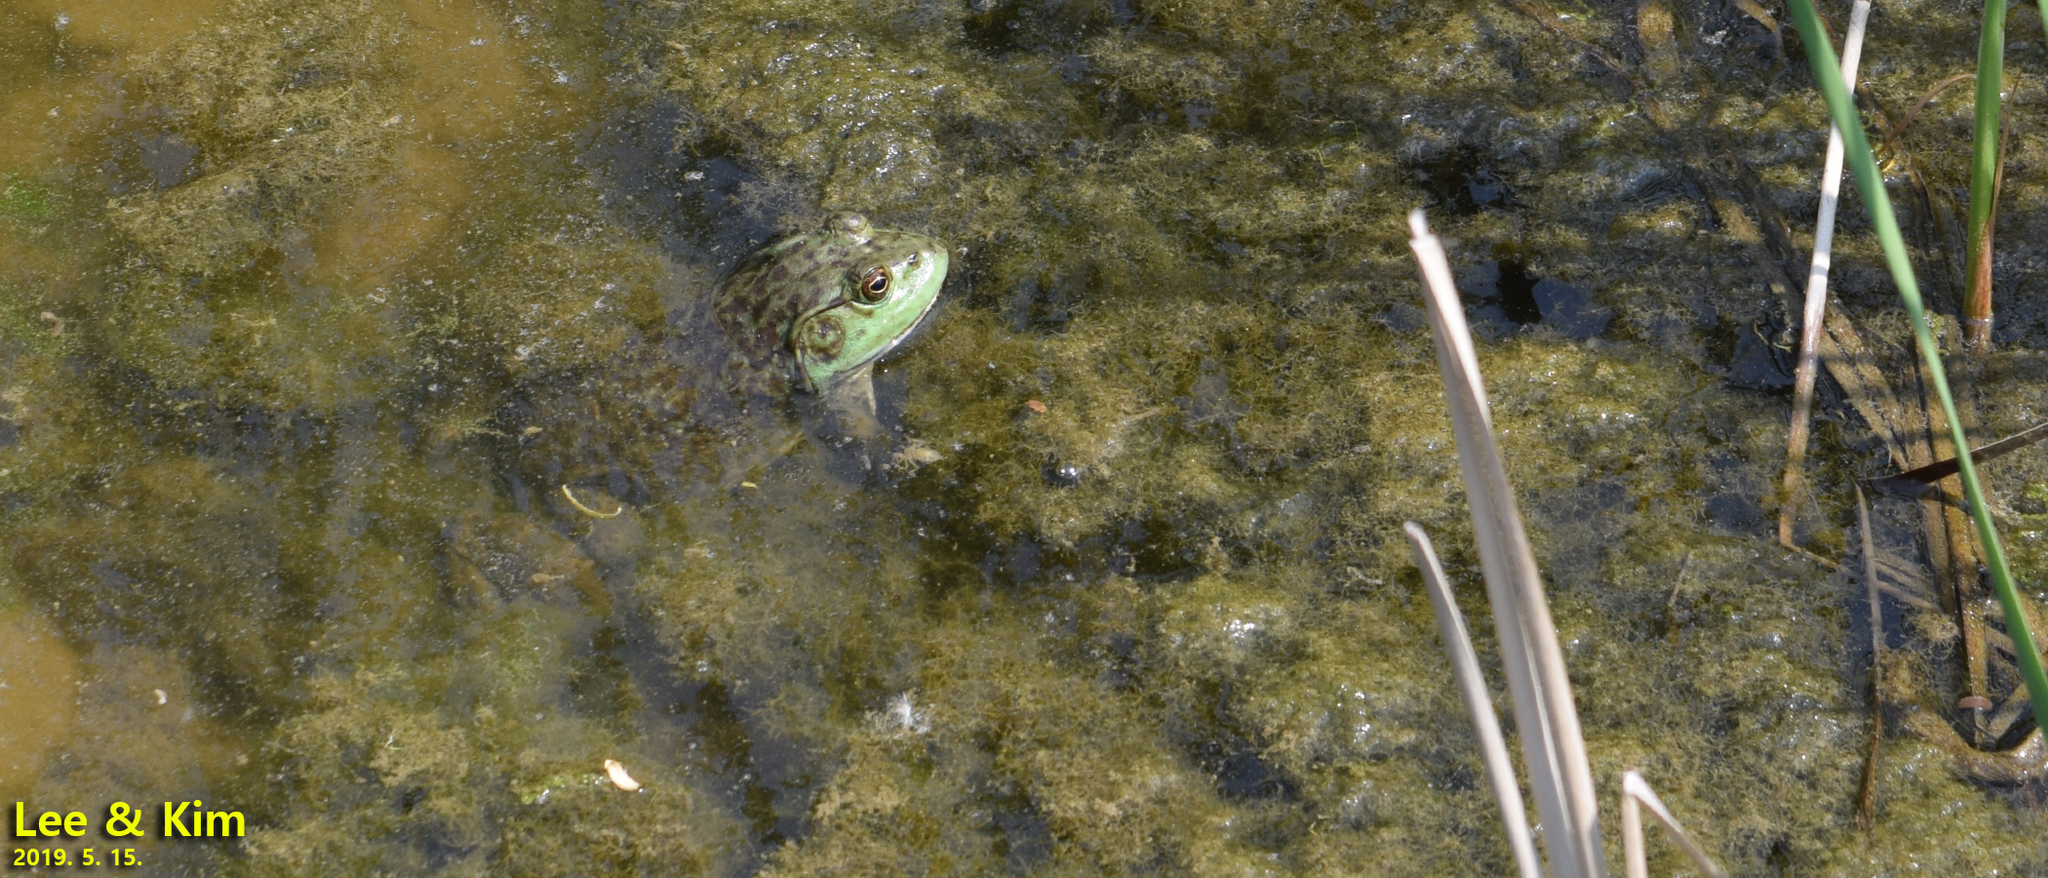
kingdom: Animalia
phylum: Chordata
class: Amphibia
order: Anura
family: Ranidae
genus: Lithobates
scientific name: Lithobates catesbeianus
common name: American bullfrog
